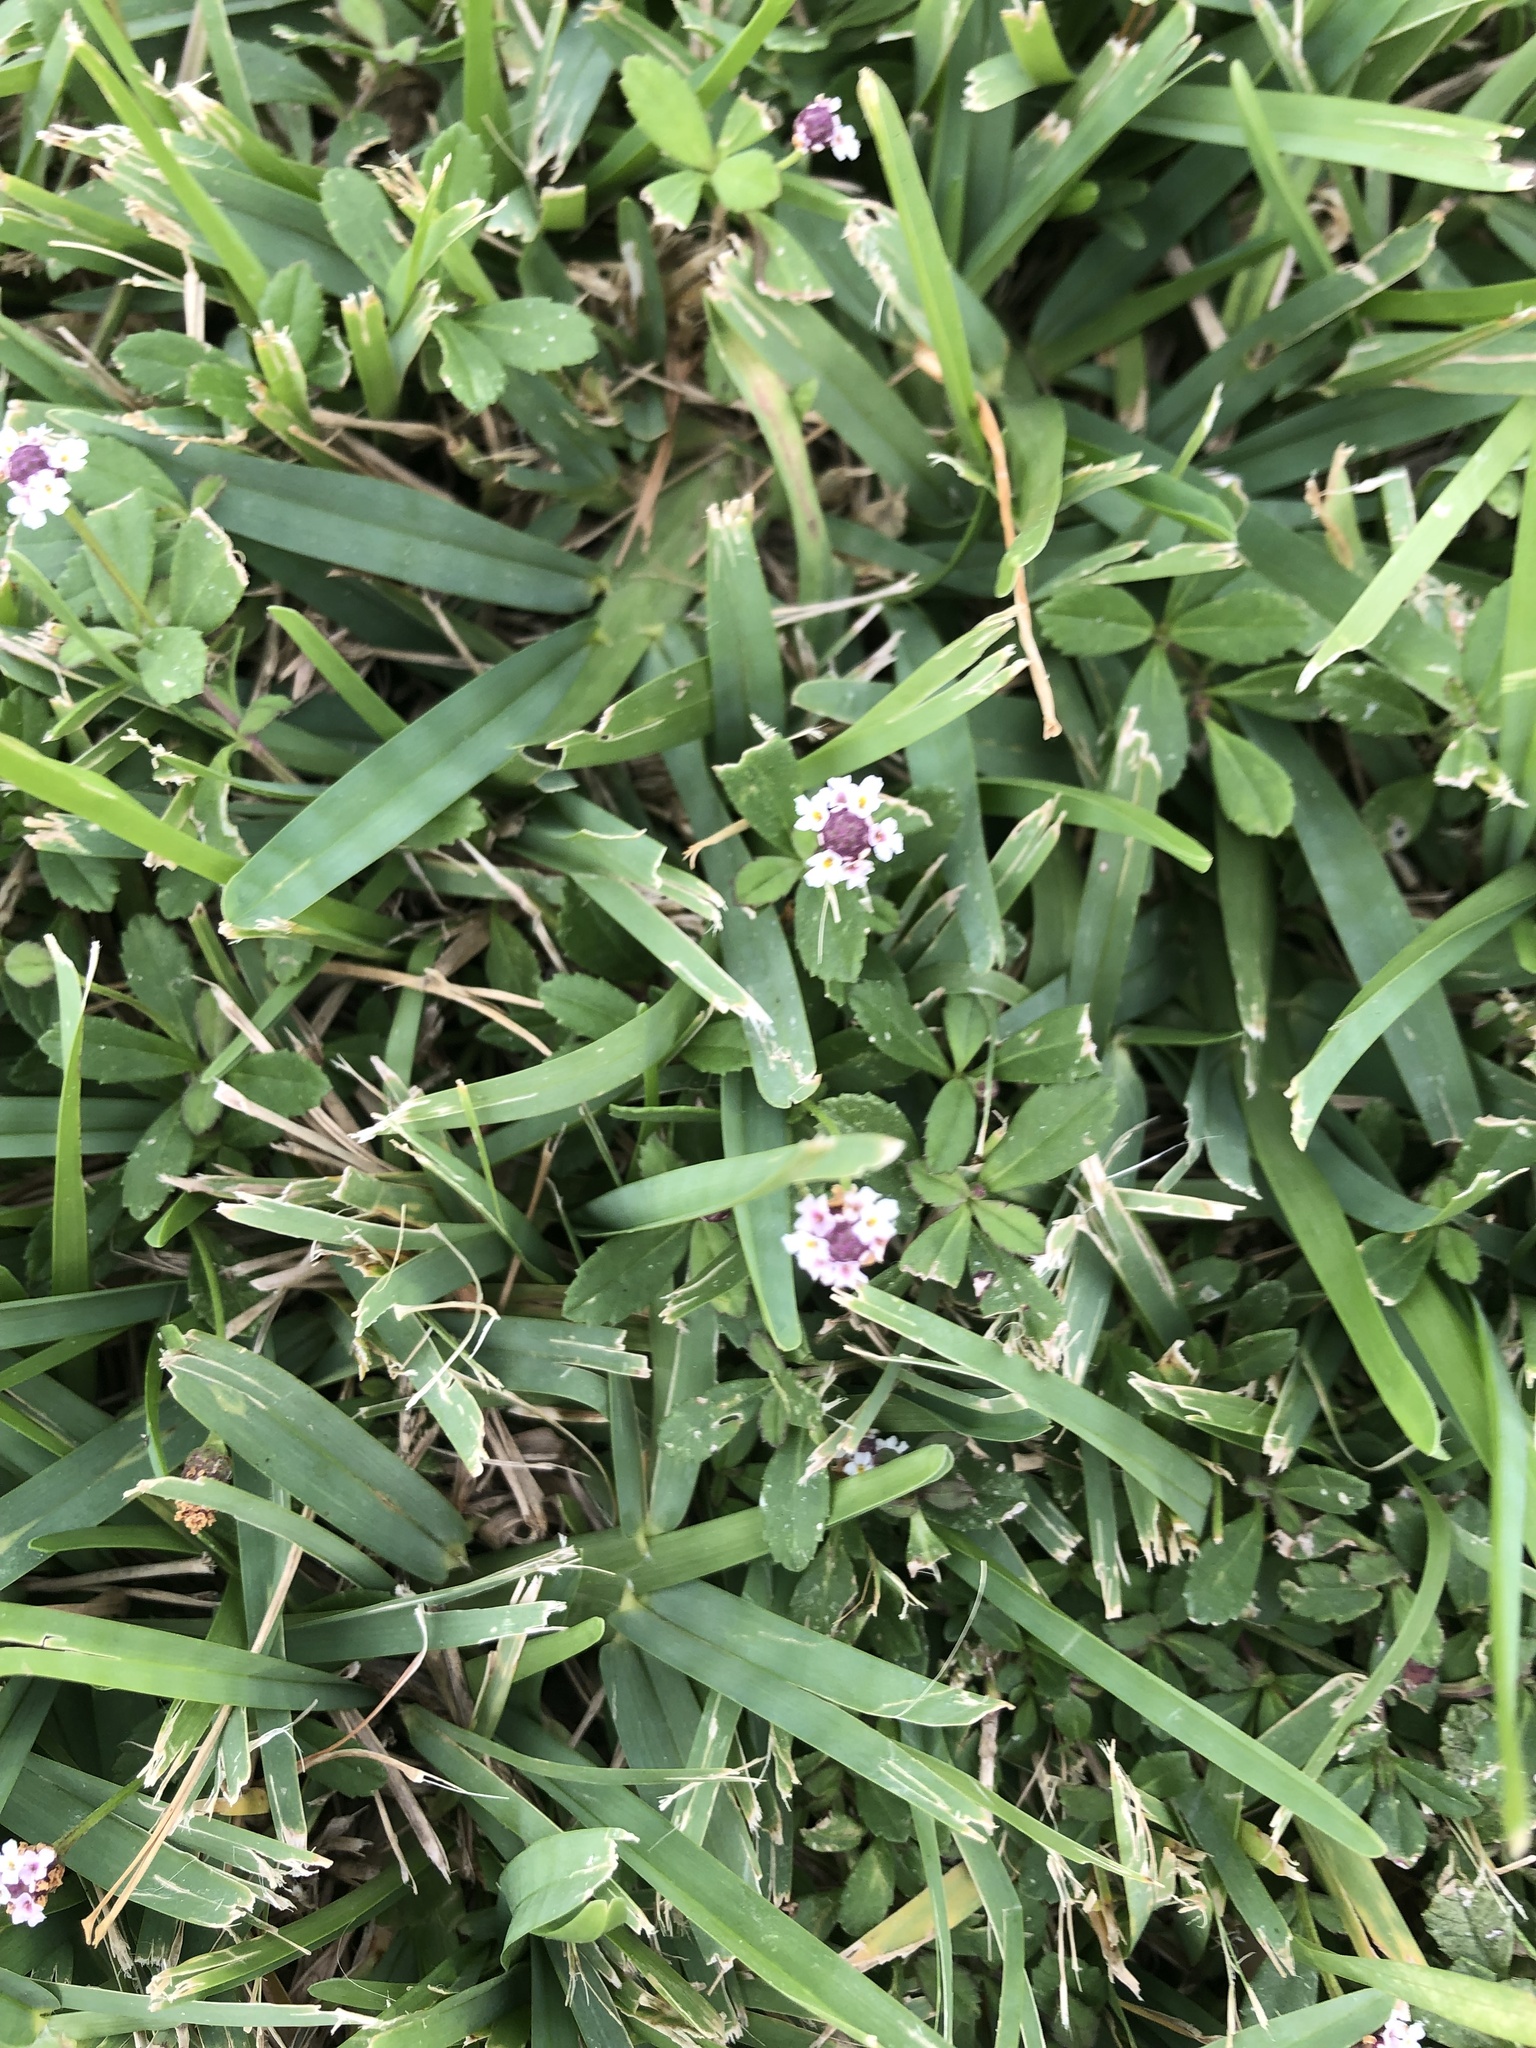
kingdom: Plantae
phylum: Tracheophyta
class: Magnoliopsida
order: Lamiales
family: Verbenaceae
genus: Phyla
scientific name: Phyla nodiflora
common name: Frogfruit
